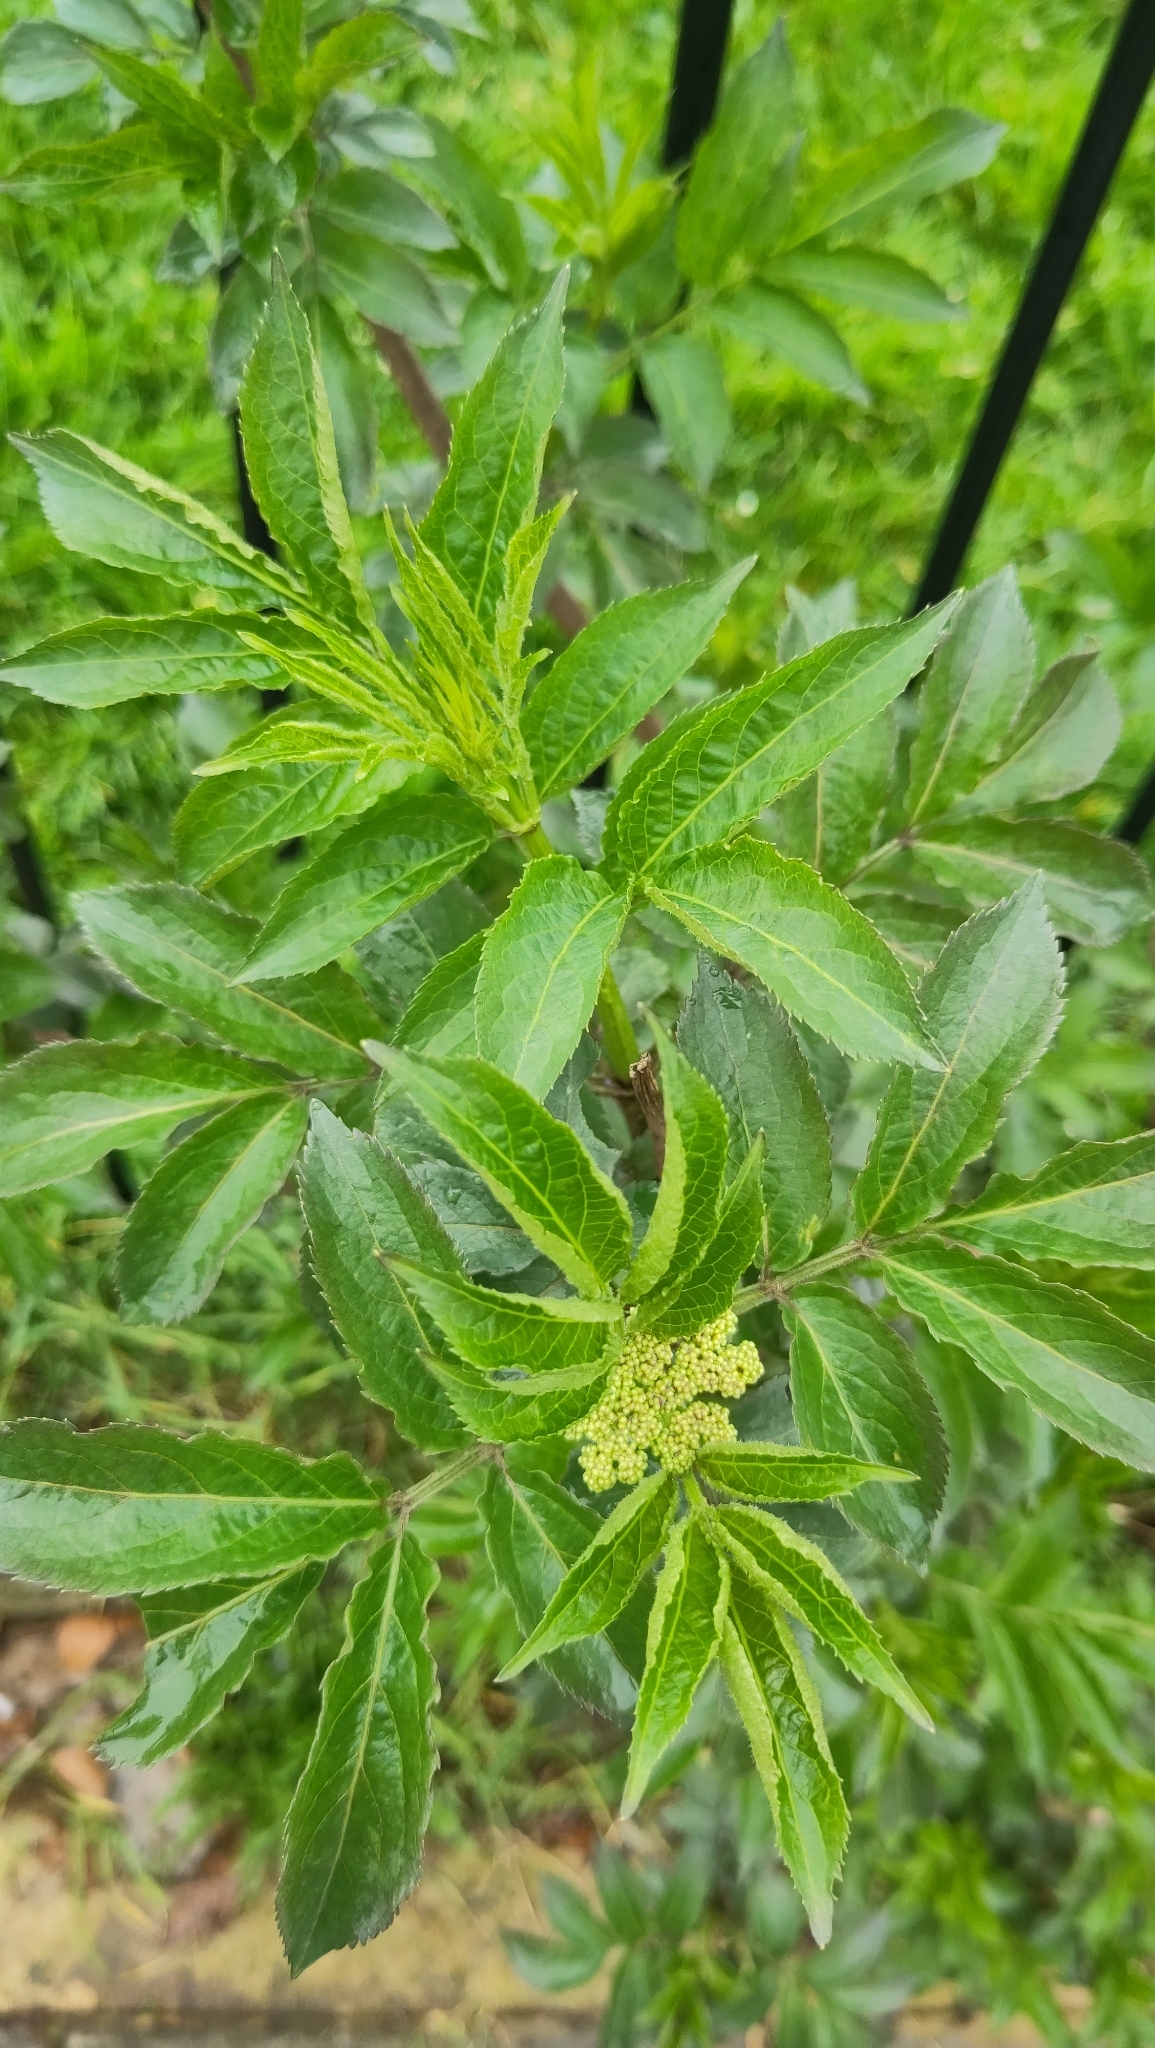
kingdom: Plantae
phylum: Tracheophyta
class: Magnoliopsida
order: Dipsacales
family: Viburnaceae
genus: Sambucus
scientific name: Sambucus nigra
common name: Elder
